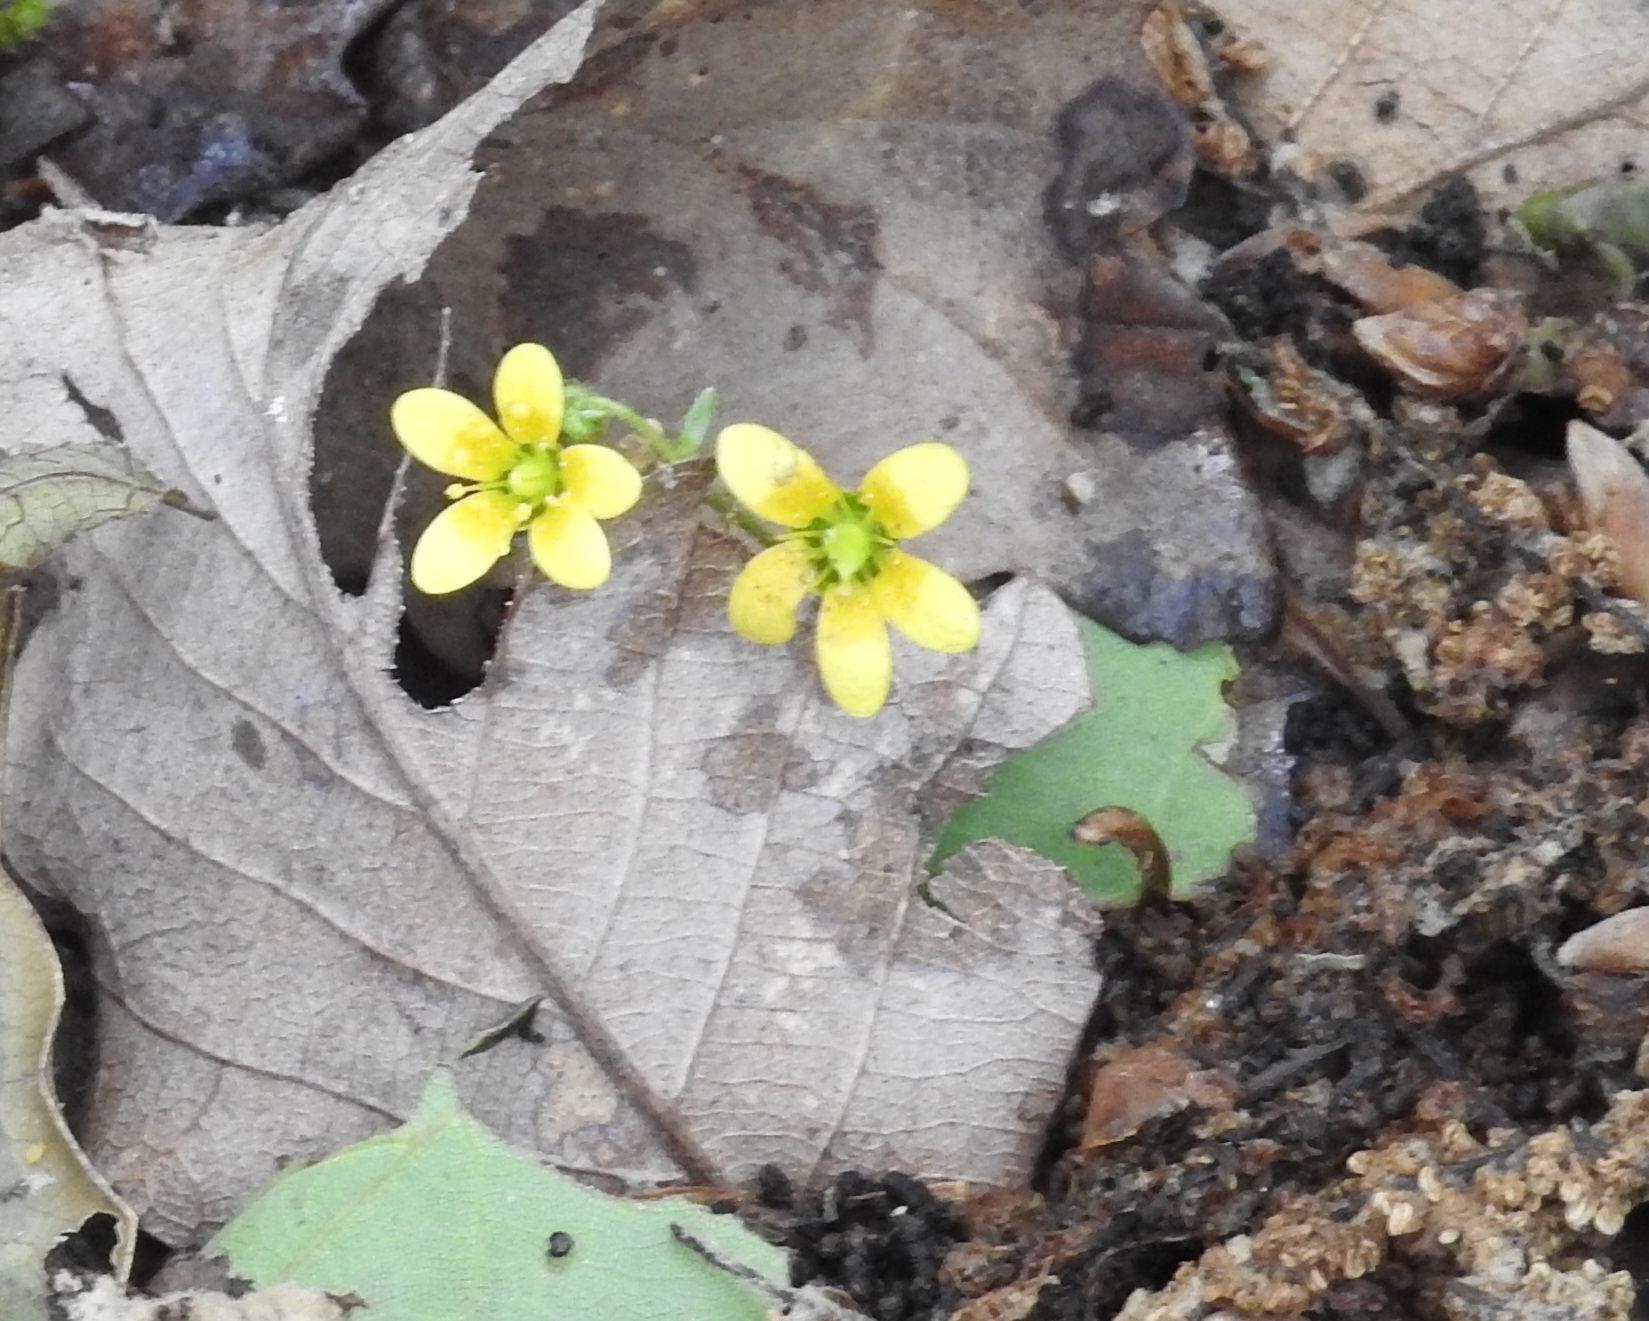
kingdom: Plantae
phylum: Tracheophyta
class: Magnoliopsida
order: Saxifragales
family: Saxifragaceae
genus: Saxifraga
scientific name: Saxifraga cymbalaria
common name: Celandine saxifrage
